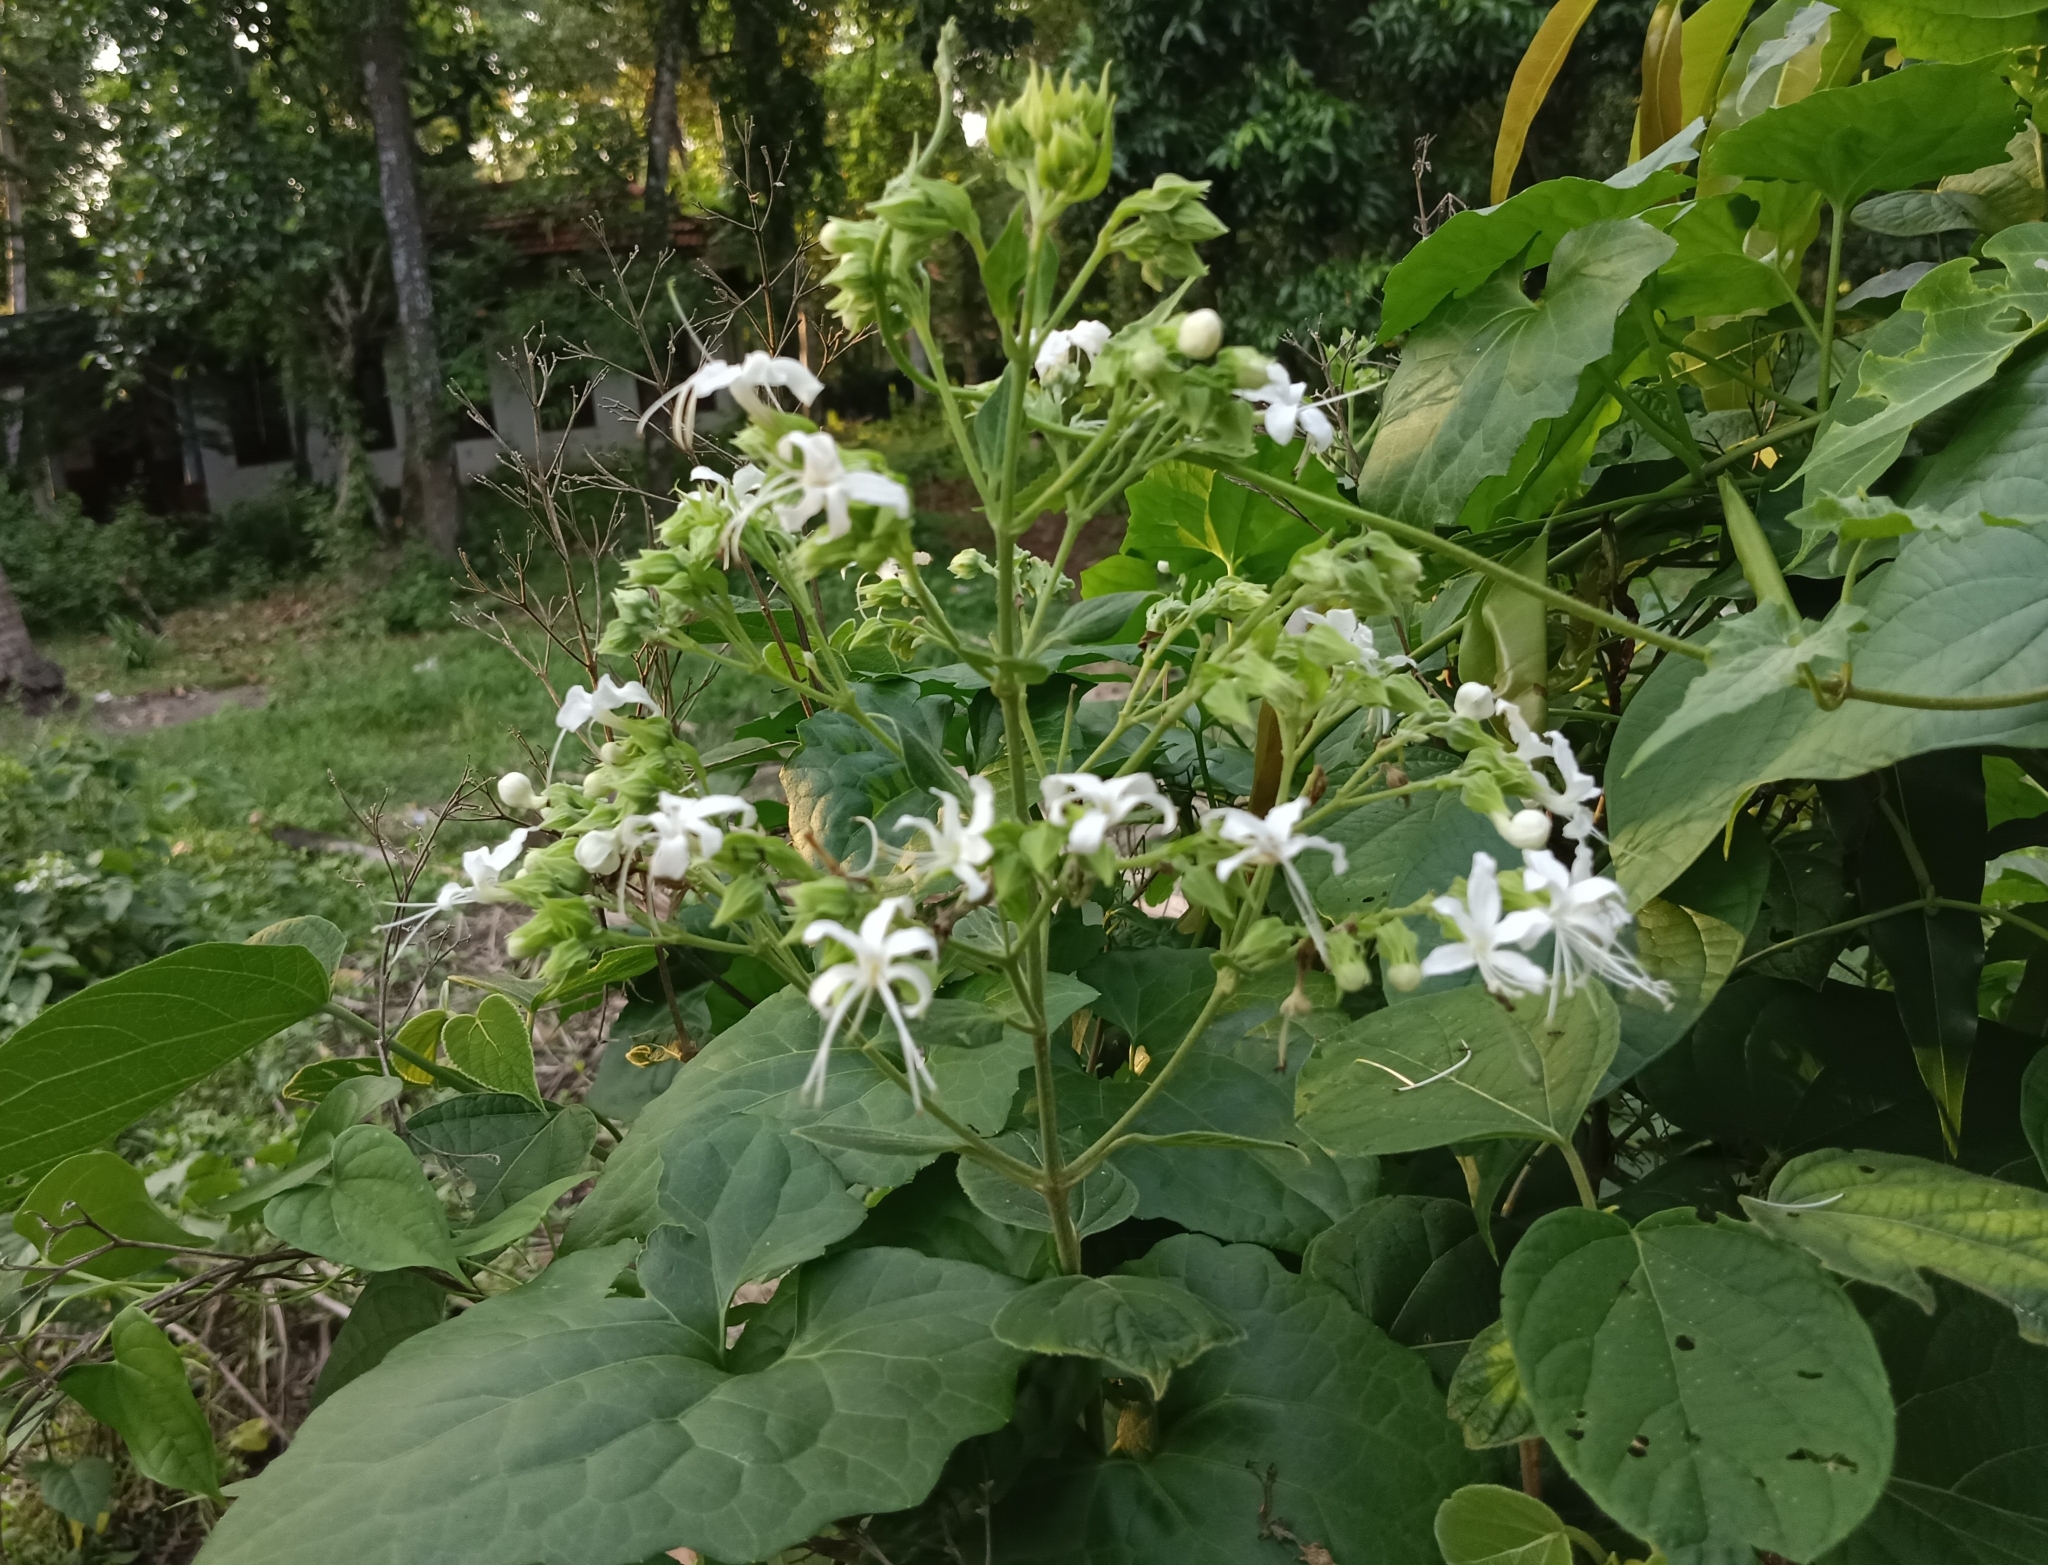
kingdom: Plantae
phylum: Tracheophyta
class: Magnoliopsida
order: Lamiales
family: Lamiaceae
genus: Clerodendrum
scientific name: Clerodendrum infortunatum
